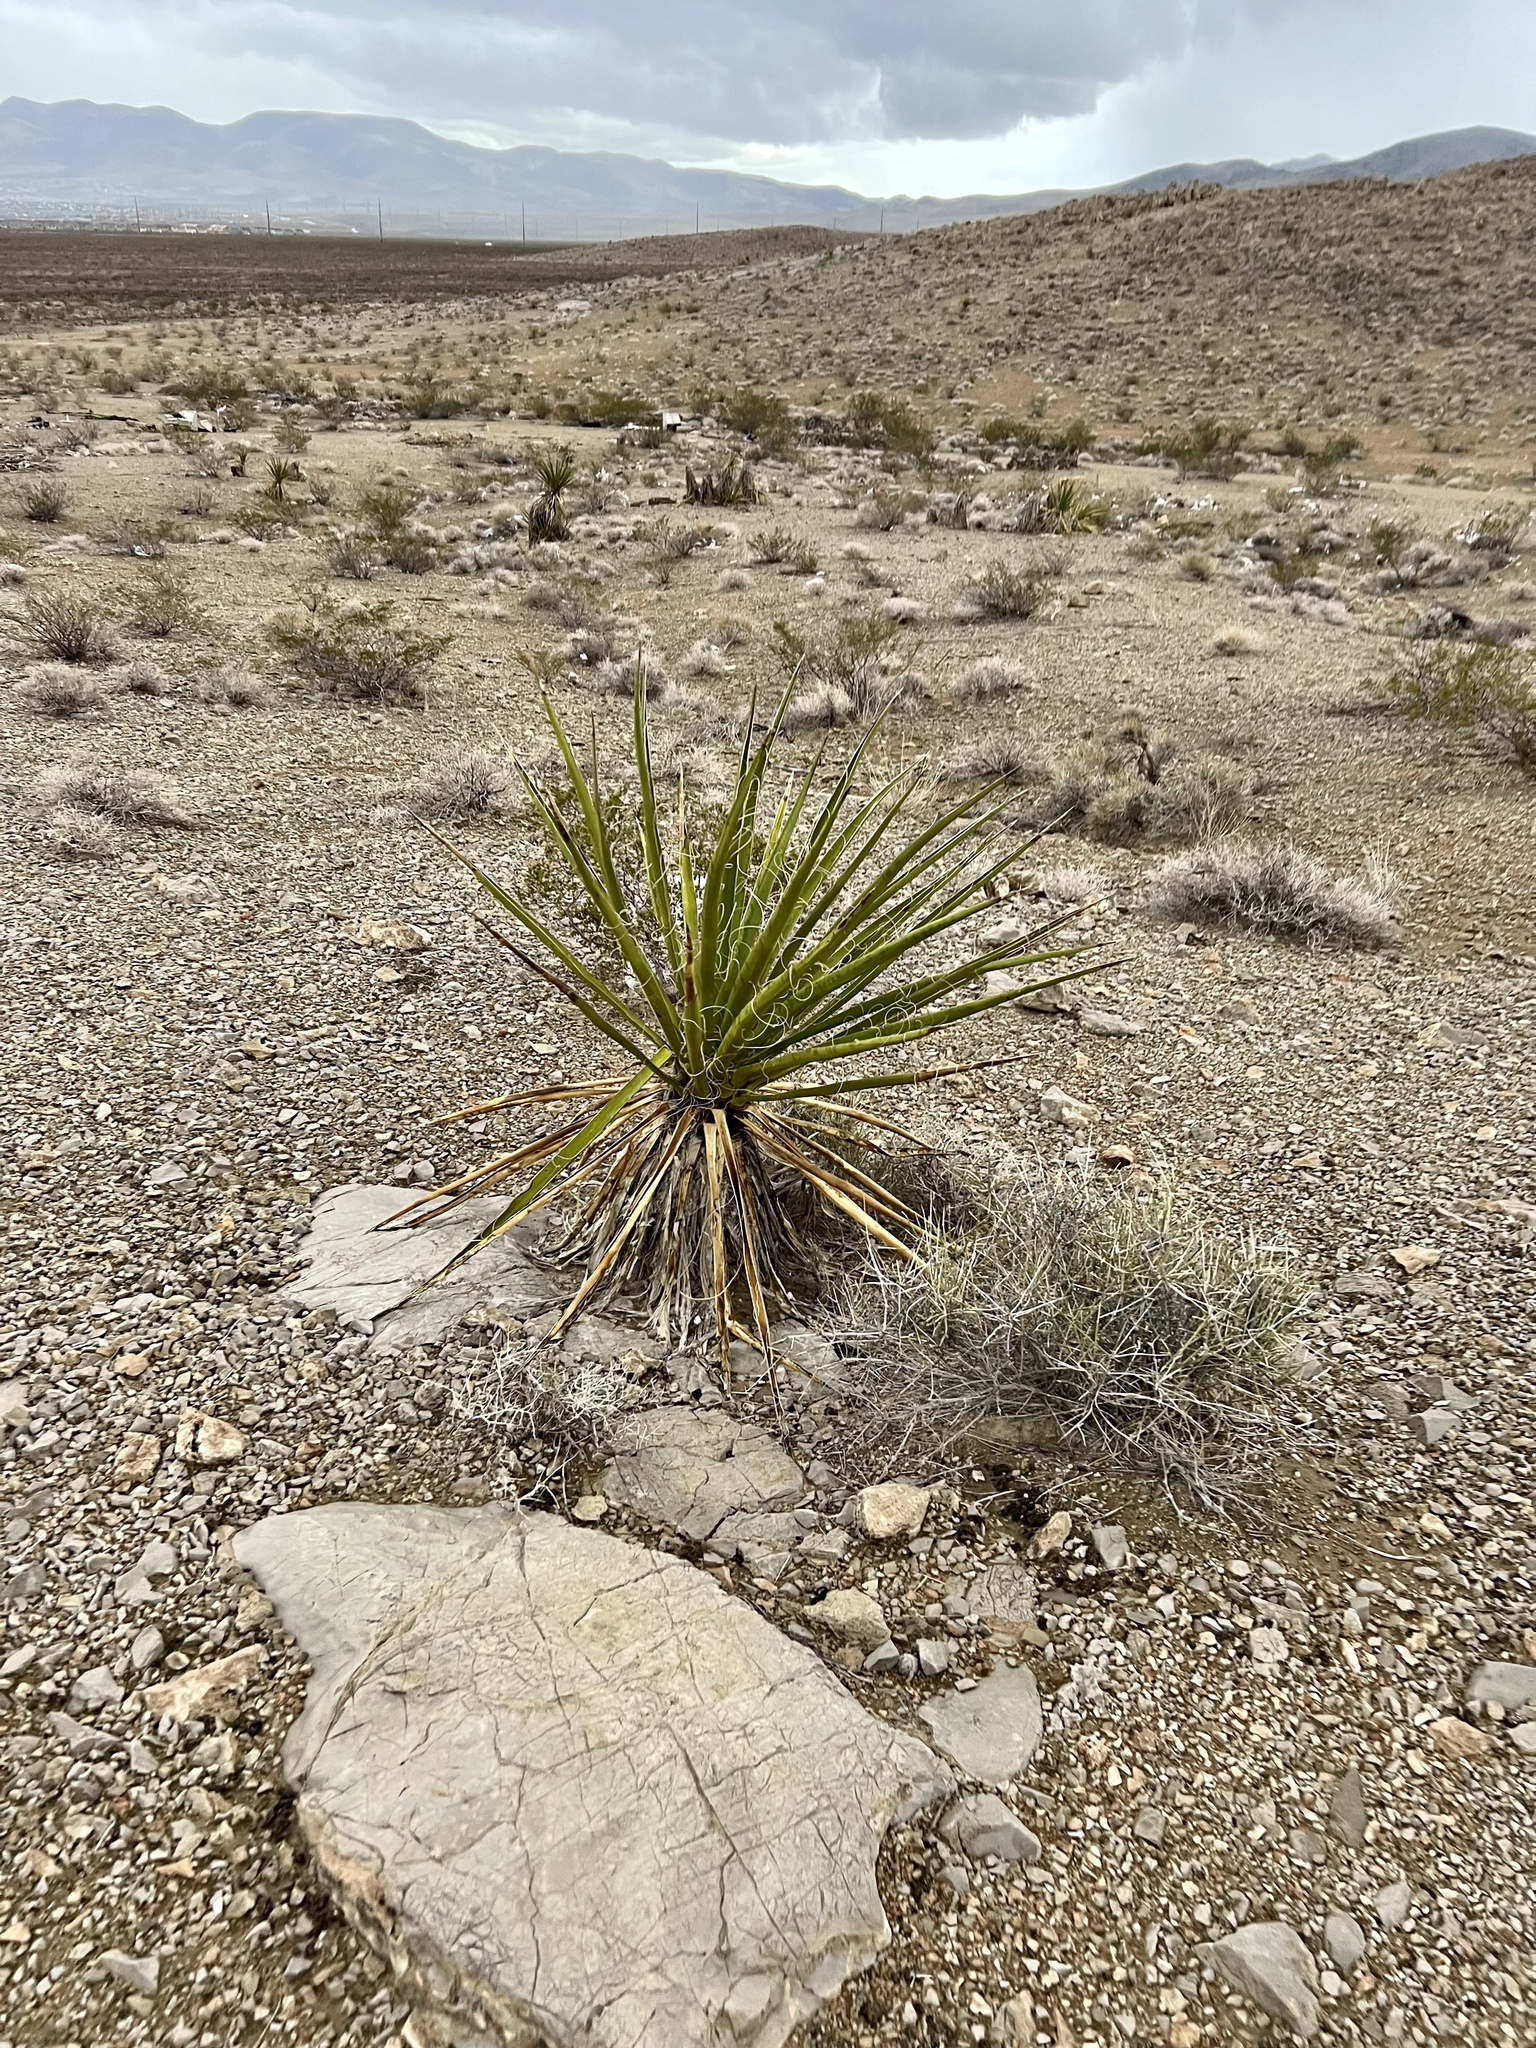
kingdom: Plantae
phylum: Tracheophyta
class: Liliopsida
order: Asparagales
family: Asparagaceae
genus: Yucca
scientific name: Yucca schidigera
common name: Mojave yucca
